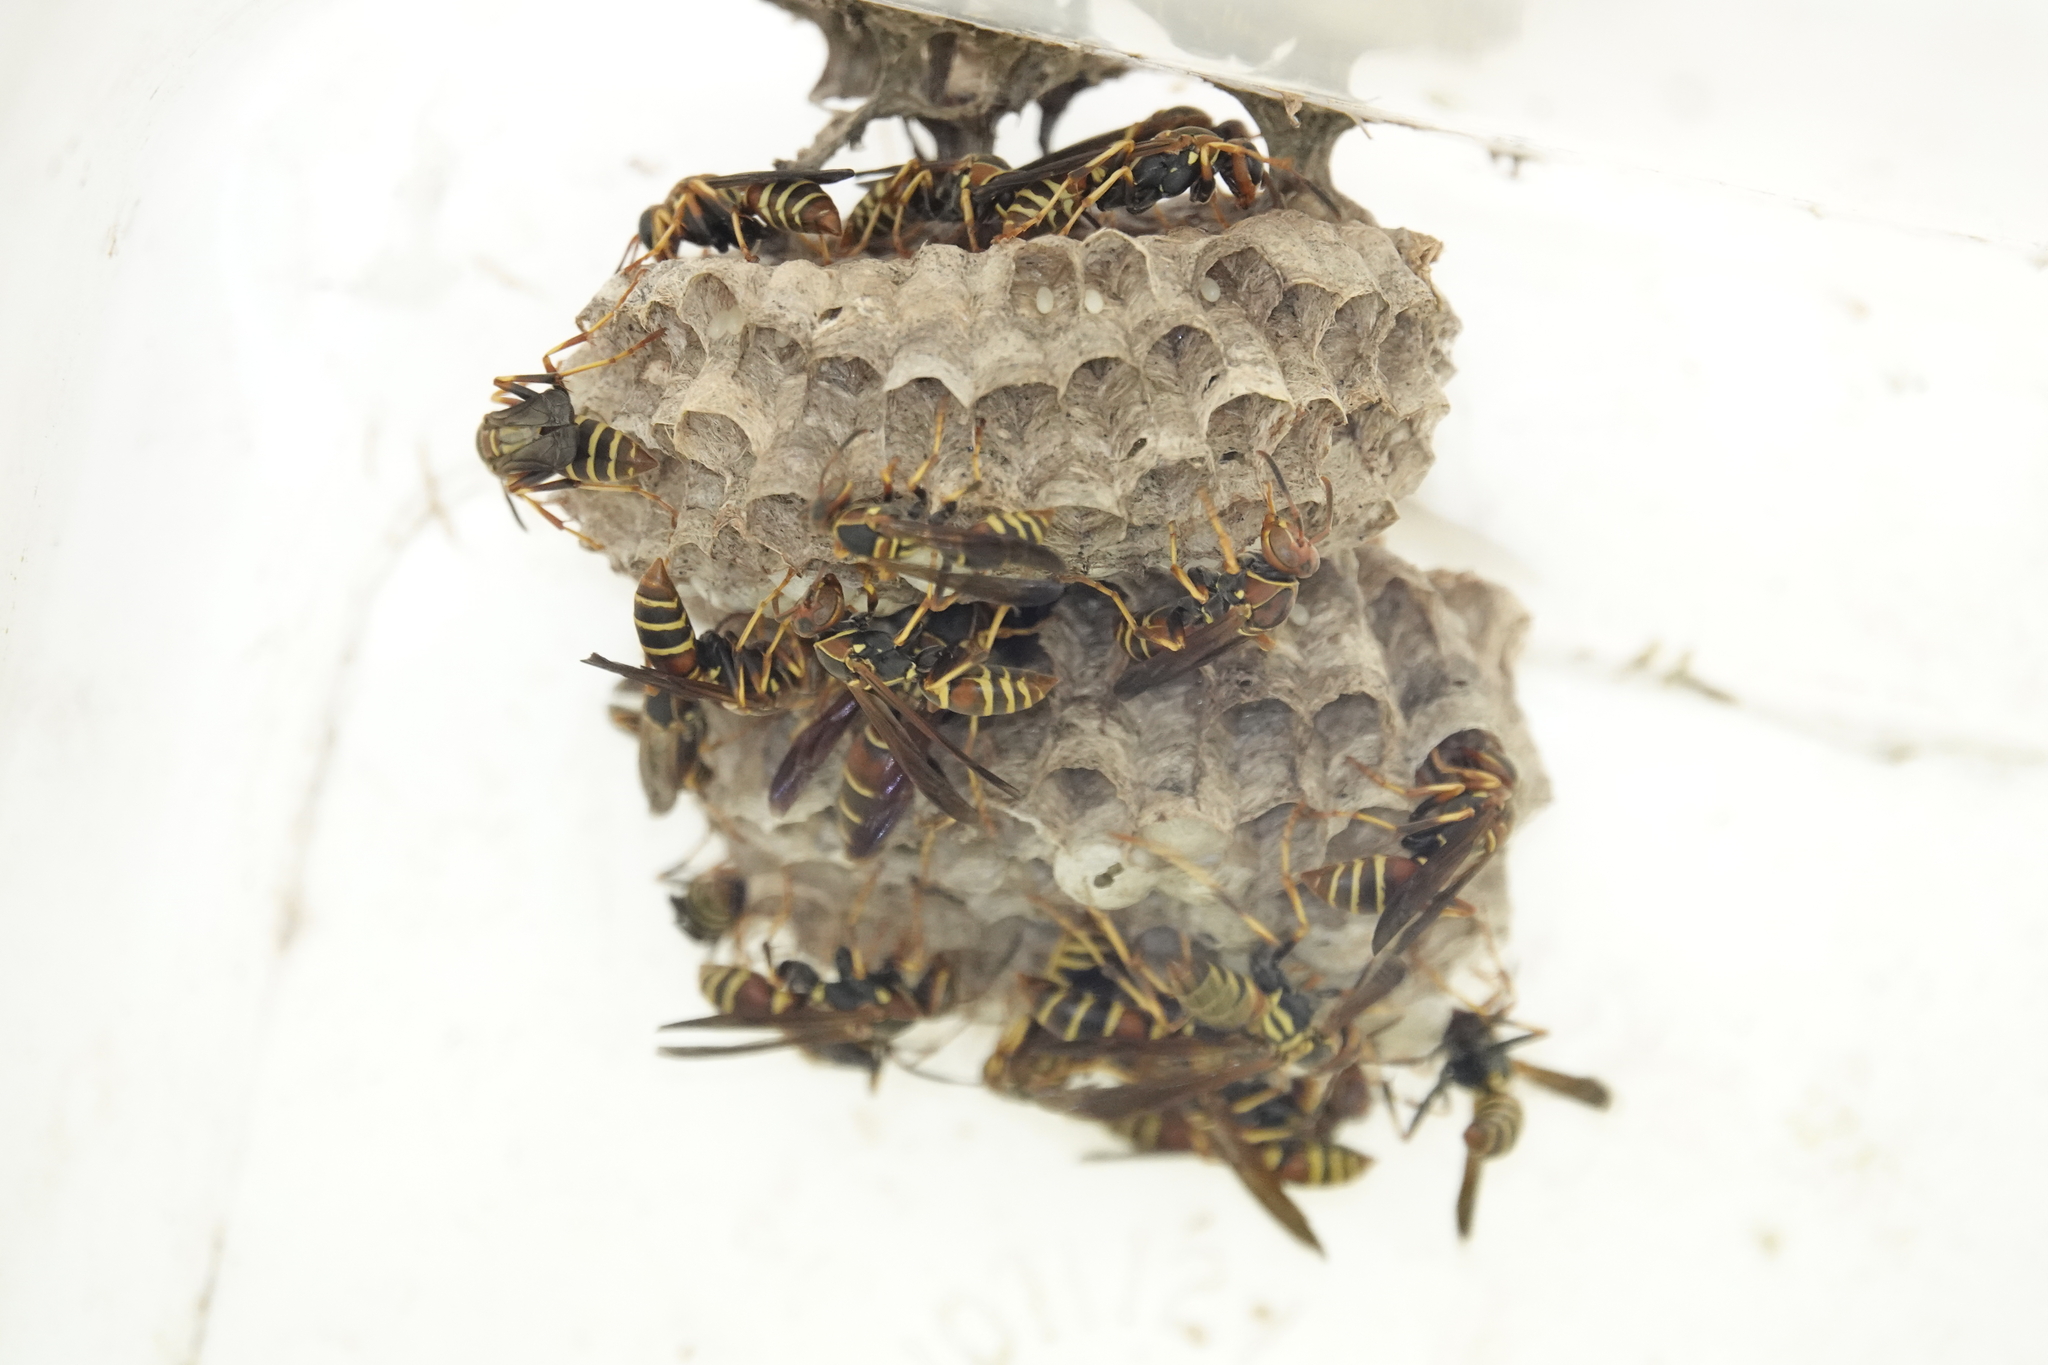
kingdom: Animalia
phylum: Arthropoda
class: Insecta
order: Hymenoptera
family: Eumenidae
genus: Polistes
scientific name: Polistes dorsalis
